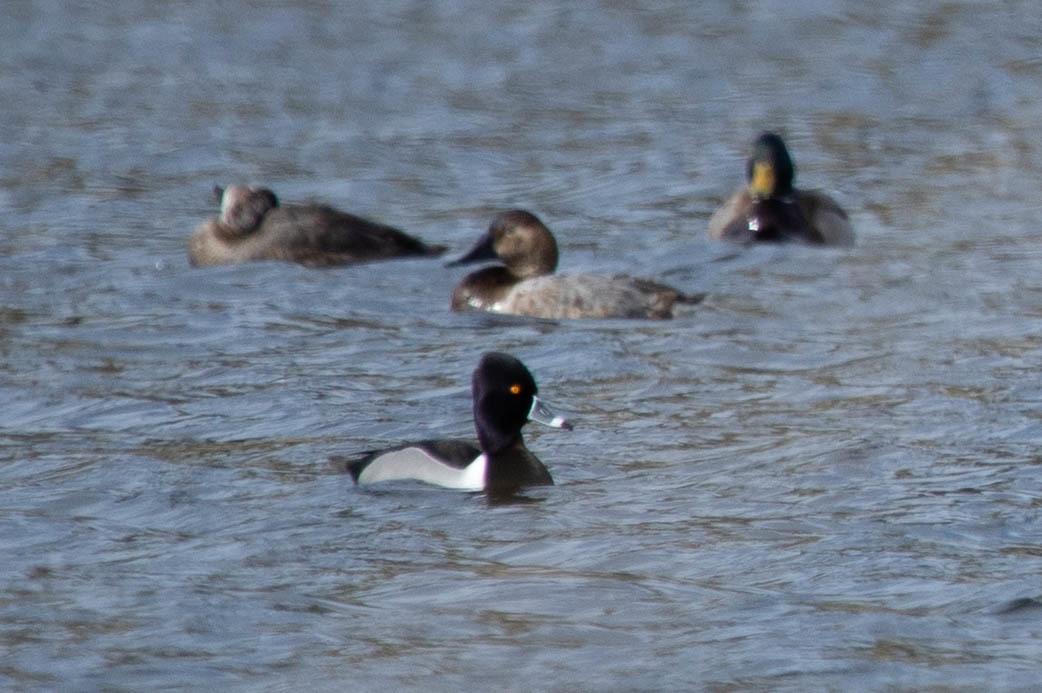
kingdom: Animalia
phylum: Chordata
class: Aves
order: Anseriformes
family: Anatidae
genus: Aythya
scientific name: Aythya collaris
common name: Ring-necked duck
